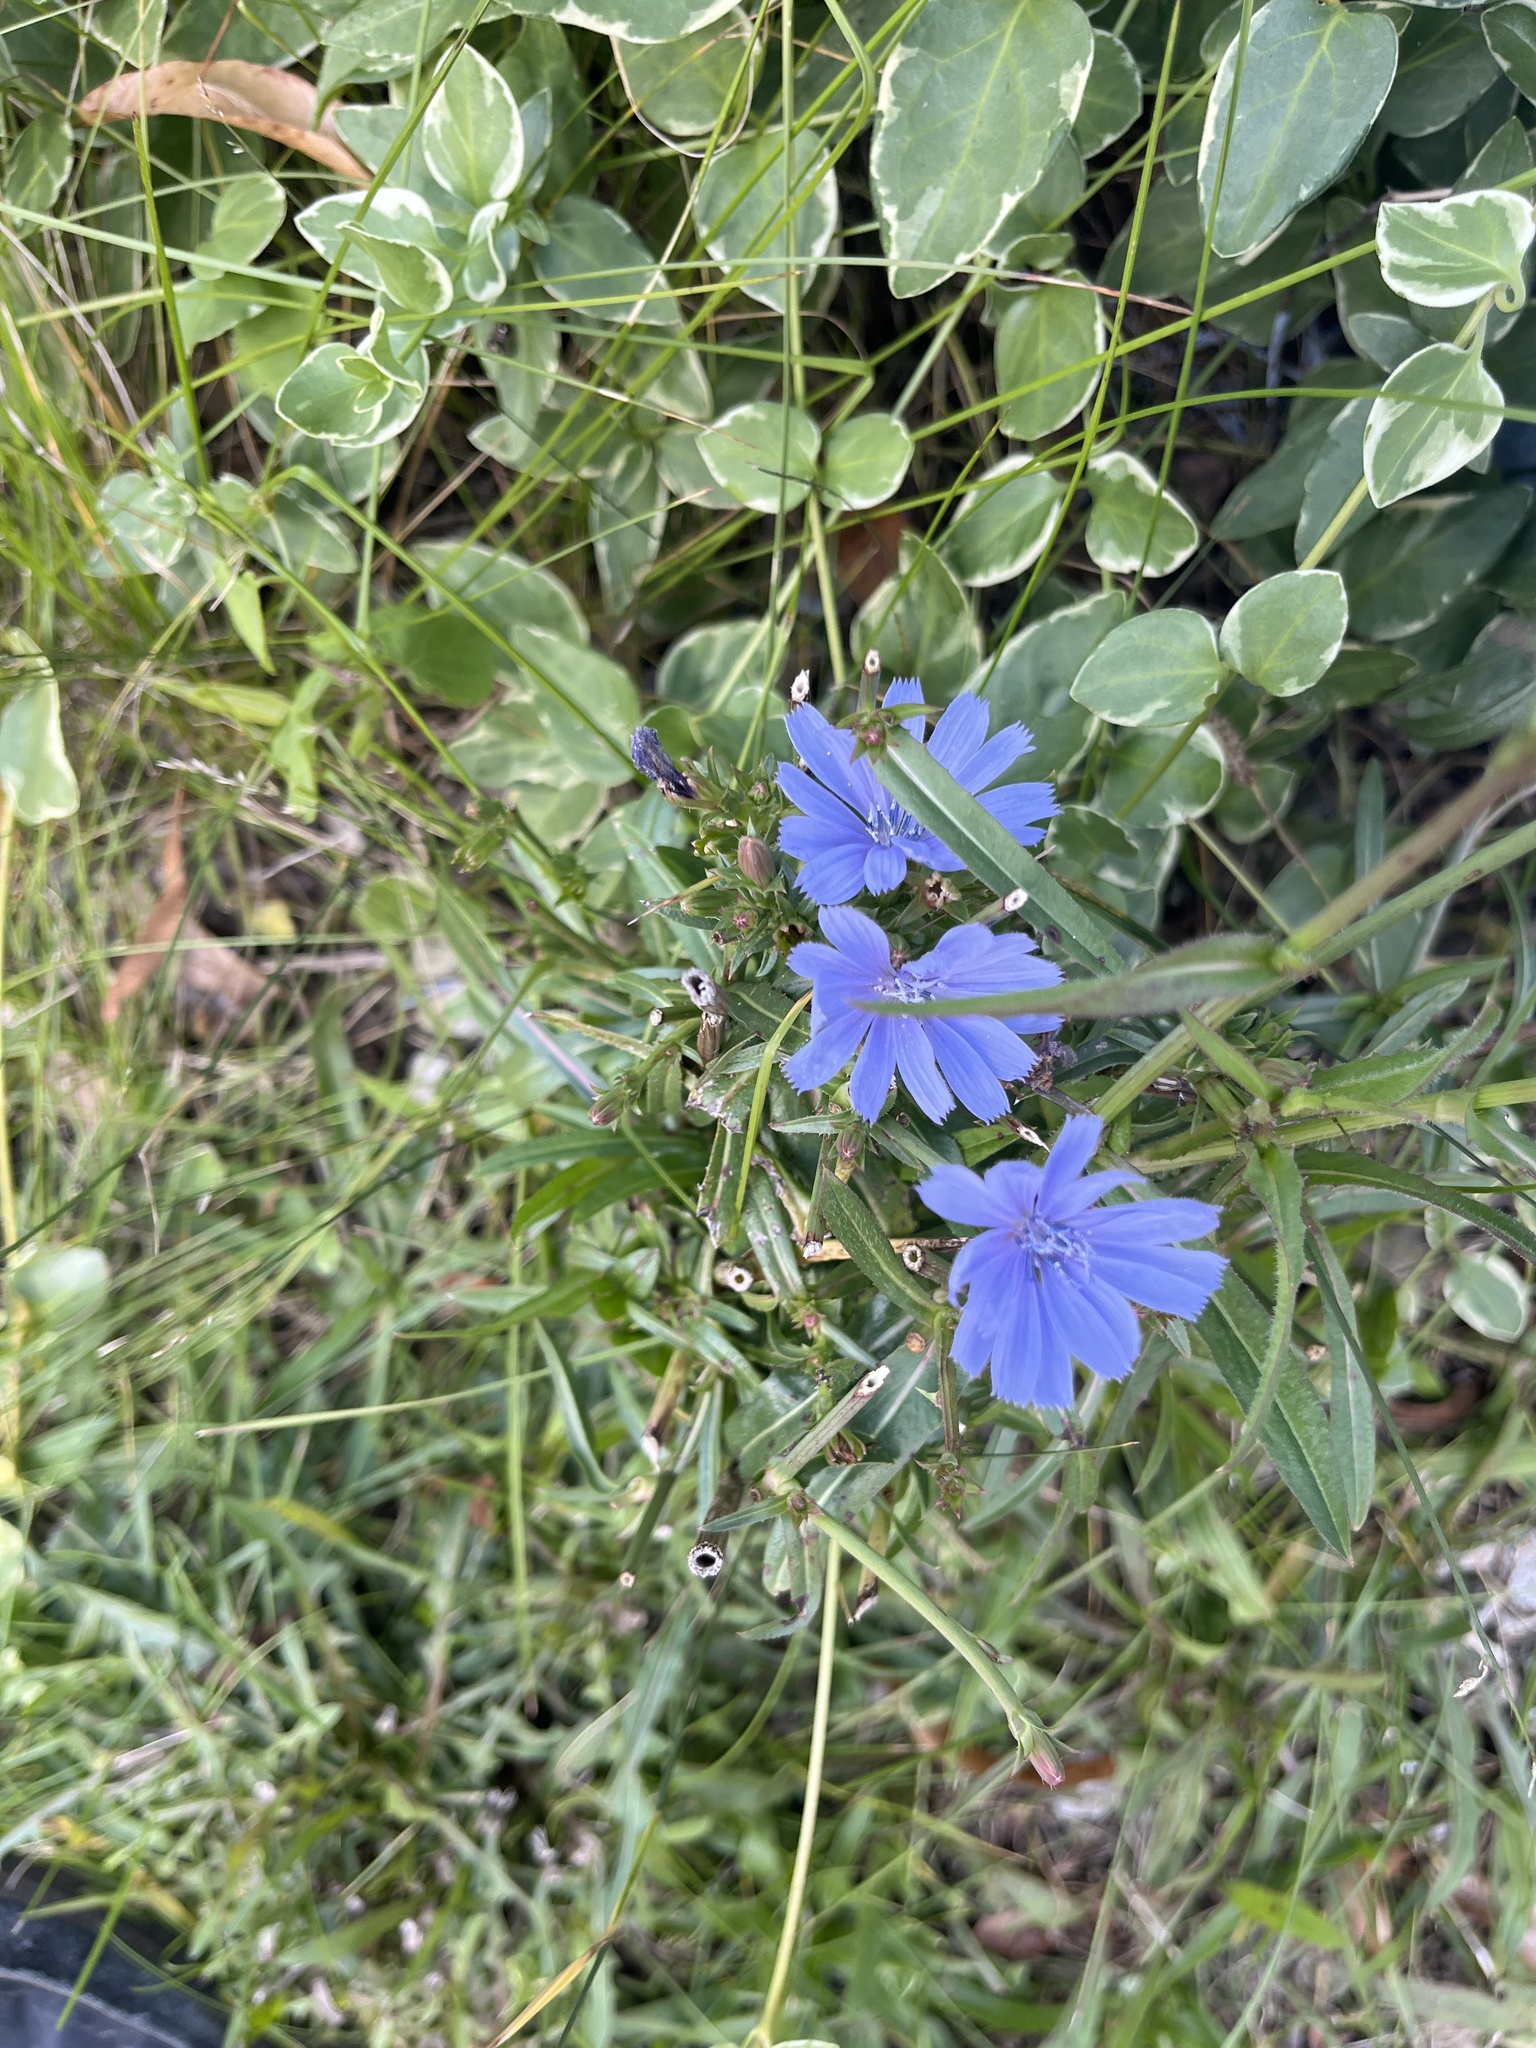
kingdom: Plantae
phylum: Tracheophyta
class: Magnoliopsida
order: Asterales
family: Asteraceae
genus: Cichorium
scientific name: Cichorium intybus
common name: Chicory
